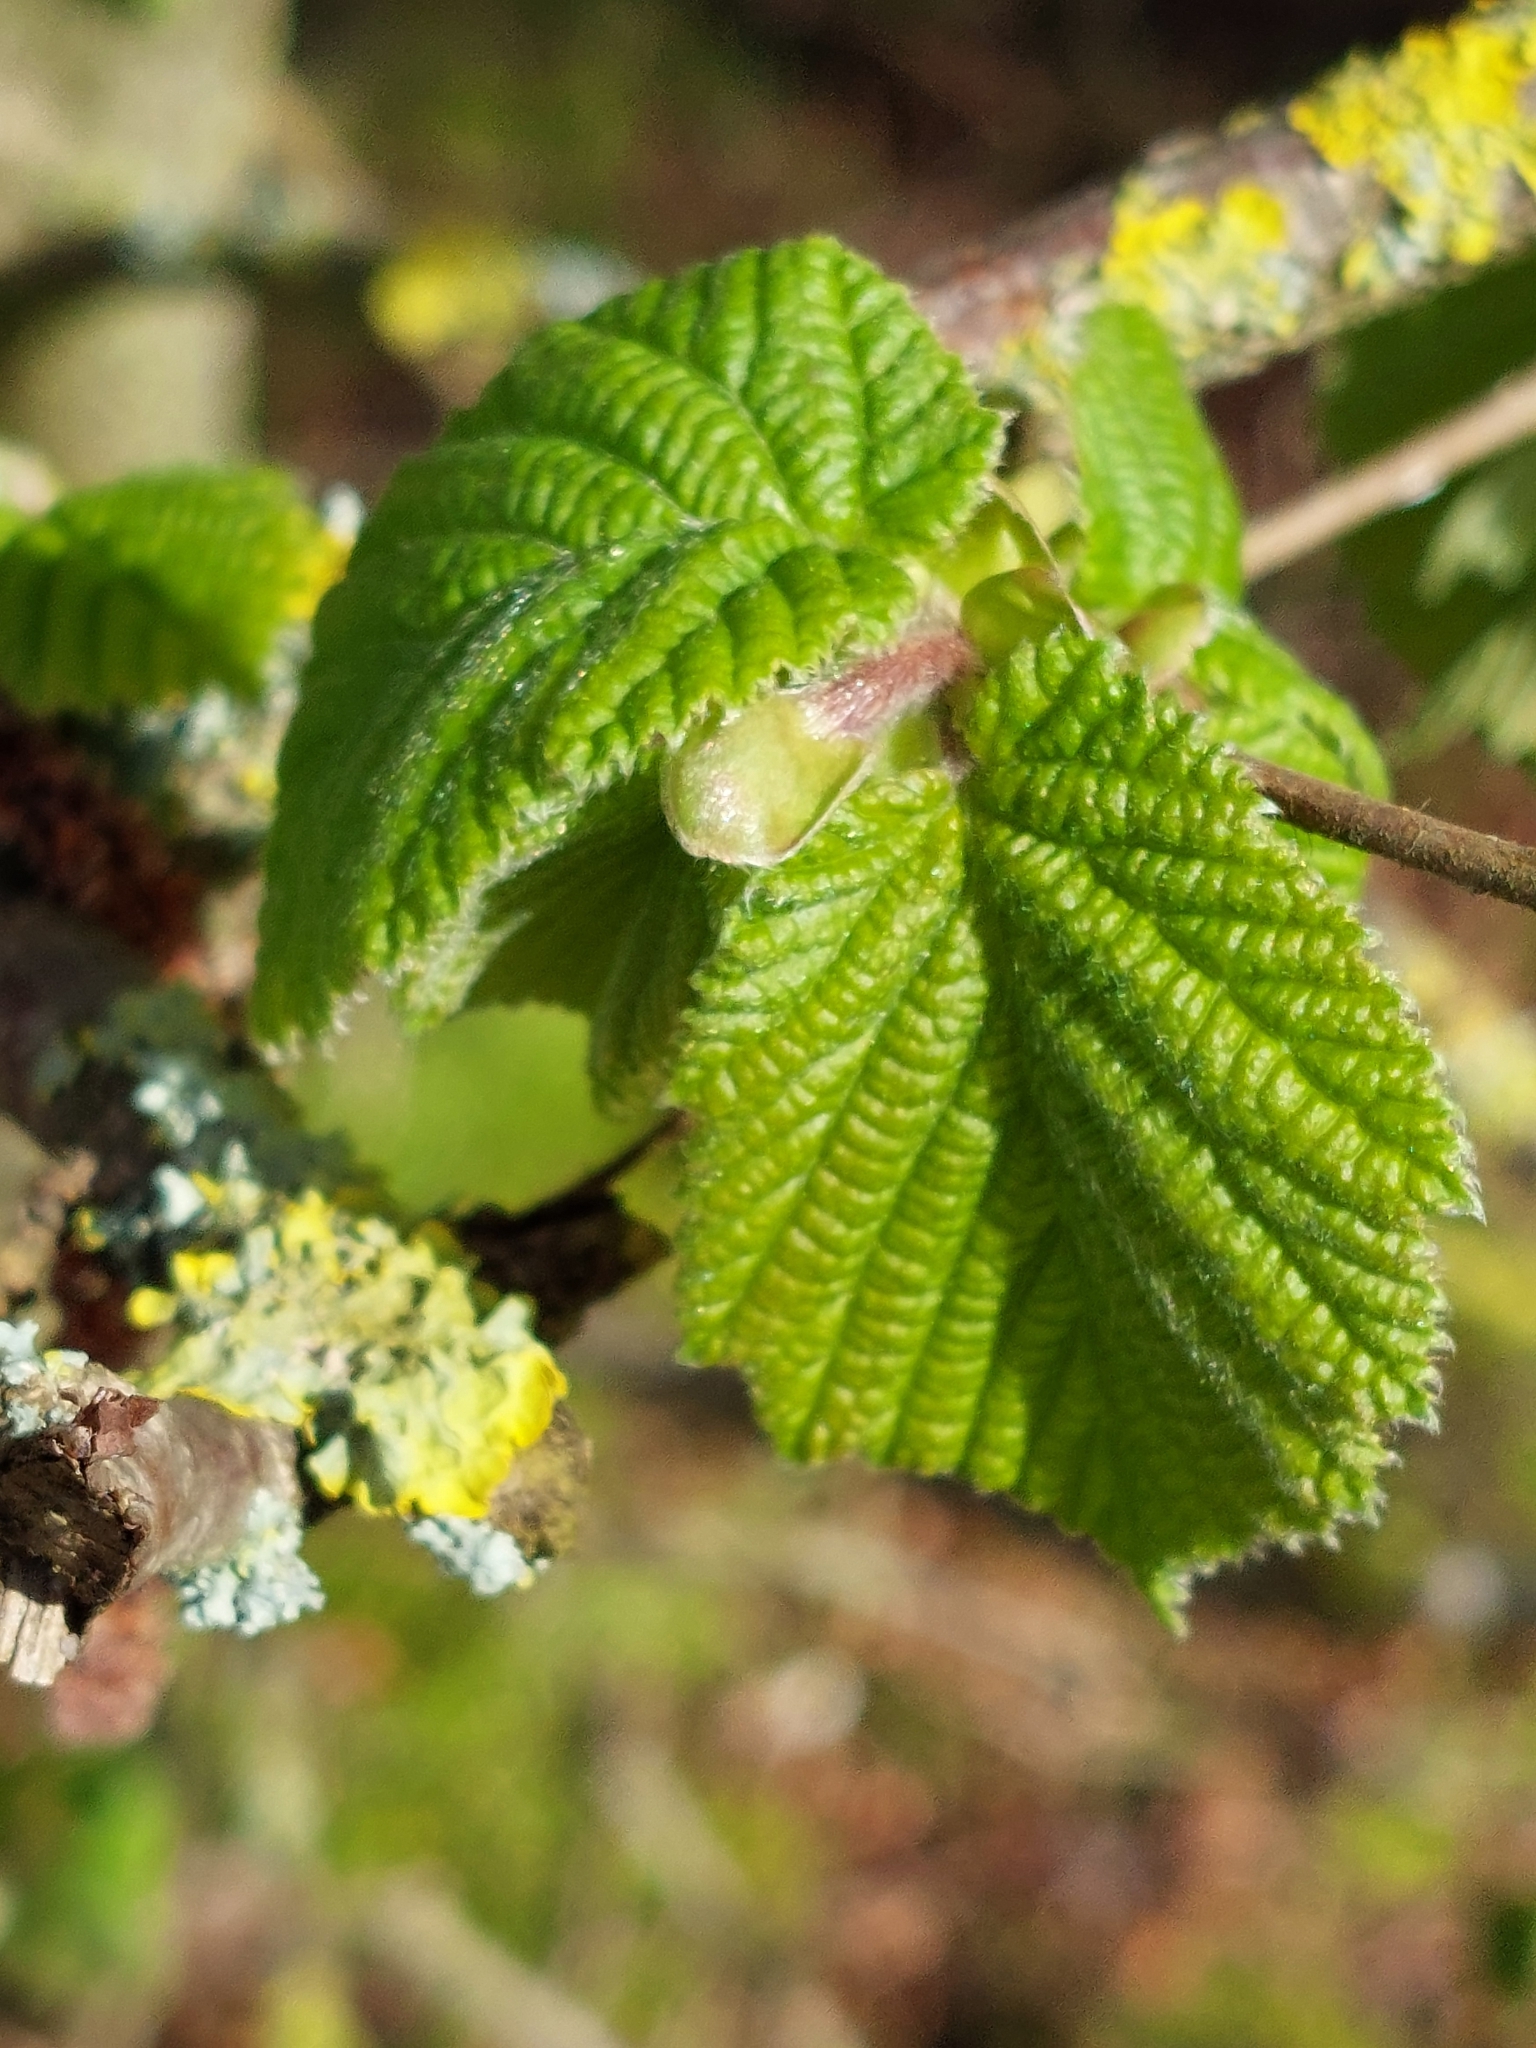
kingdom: Plantae
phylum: Tracheophyta
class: Magnoliopsida
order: Fagales
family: Betulaceae
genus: Corylus
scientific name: Corylus avellana
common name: European hazel
